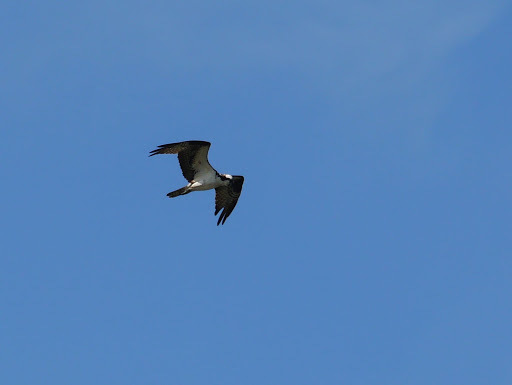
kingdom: Animalia
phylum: Chordata
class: Aves
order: Accipitriformes
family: Pandionidae
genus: Pandion
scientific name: Pandion haliaetus
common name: Osprey
